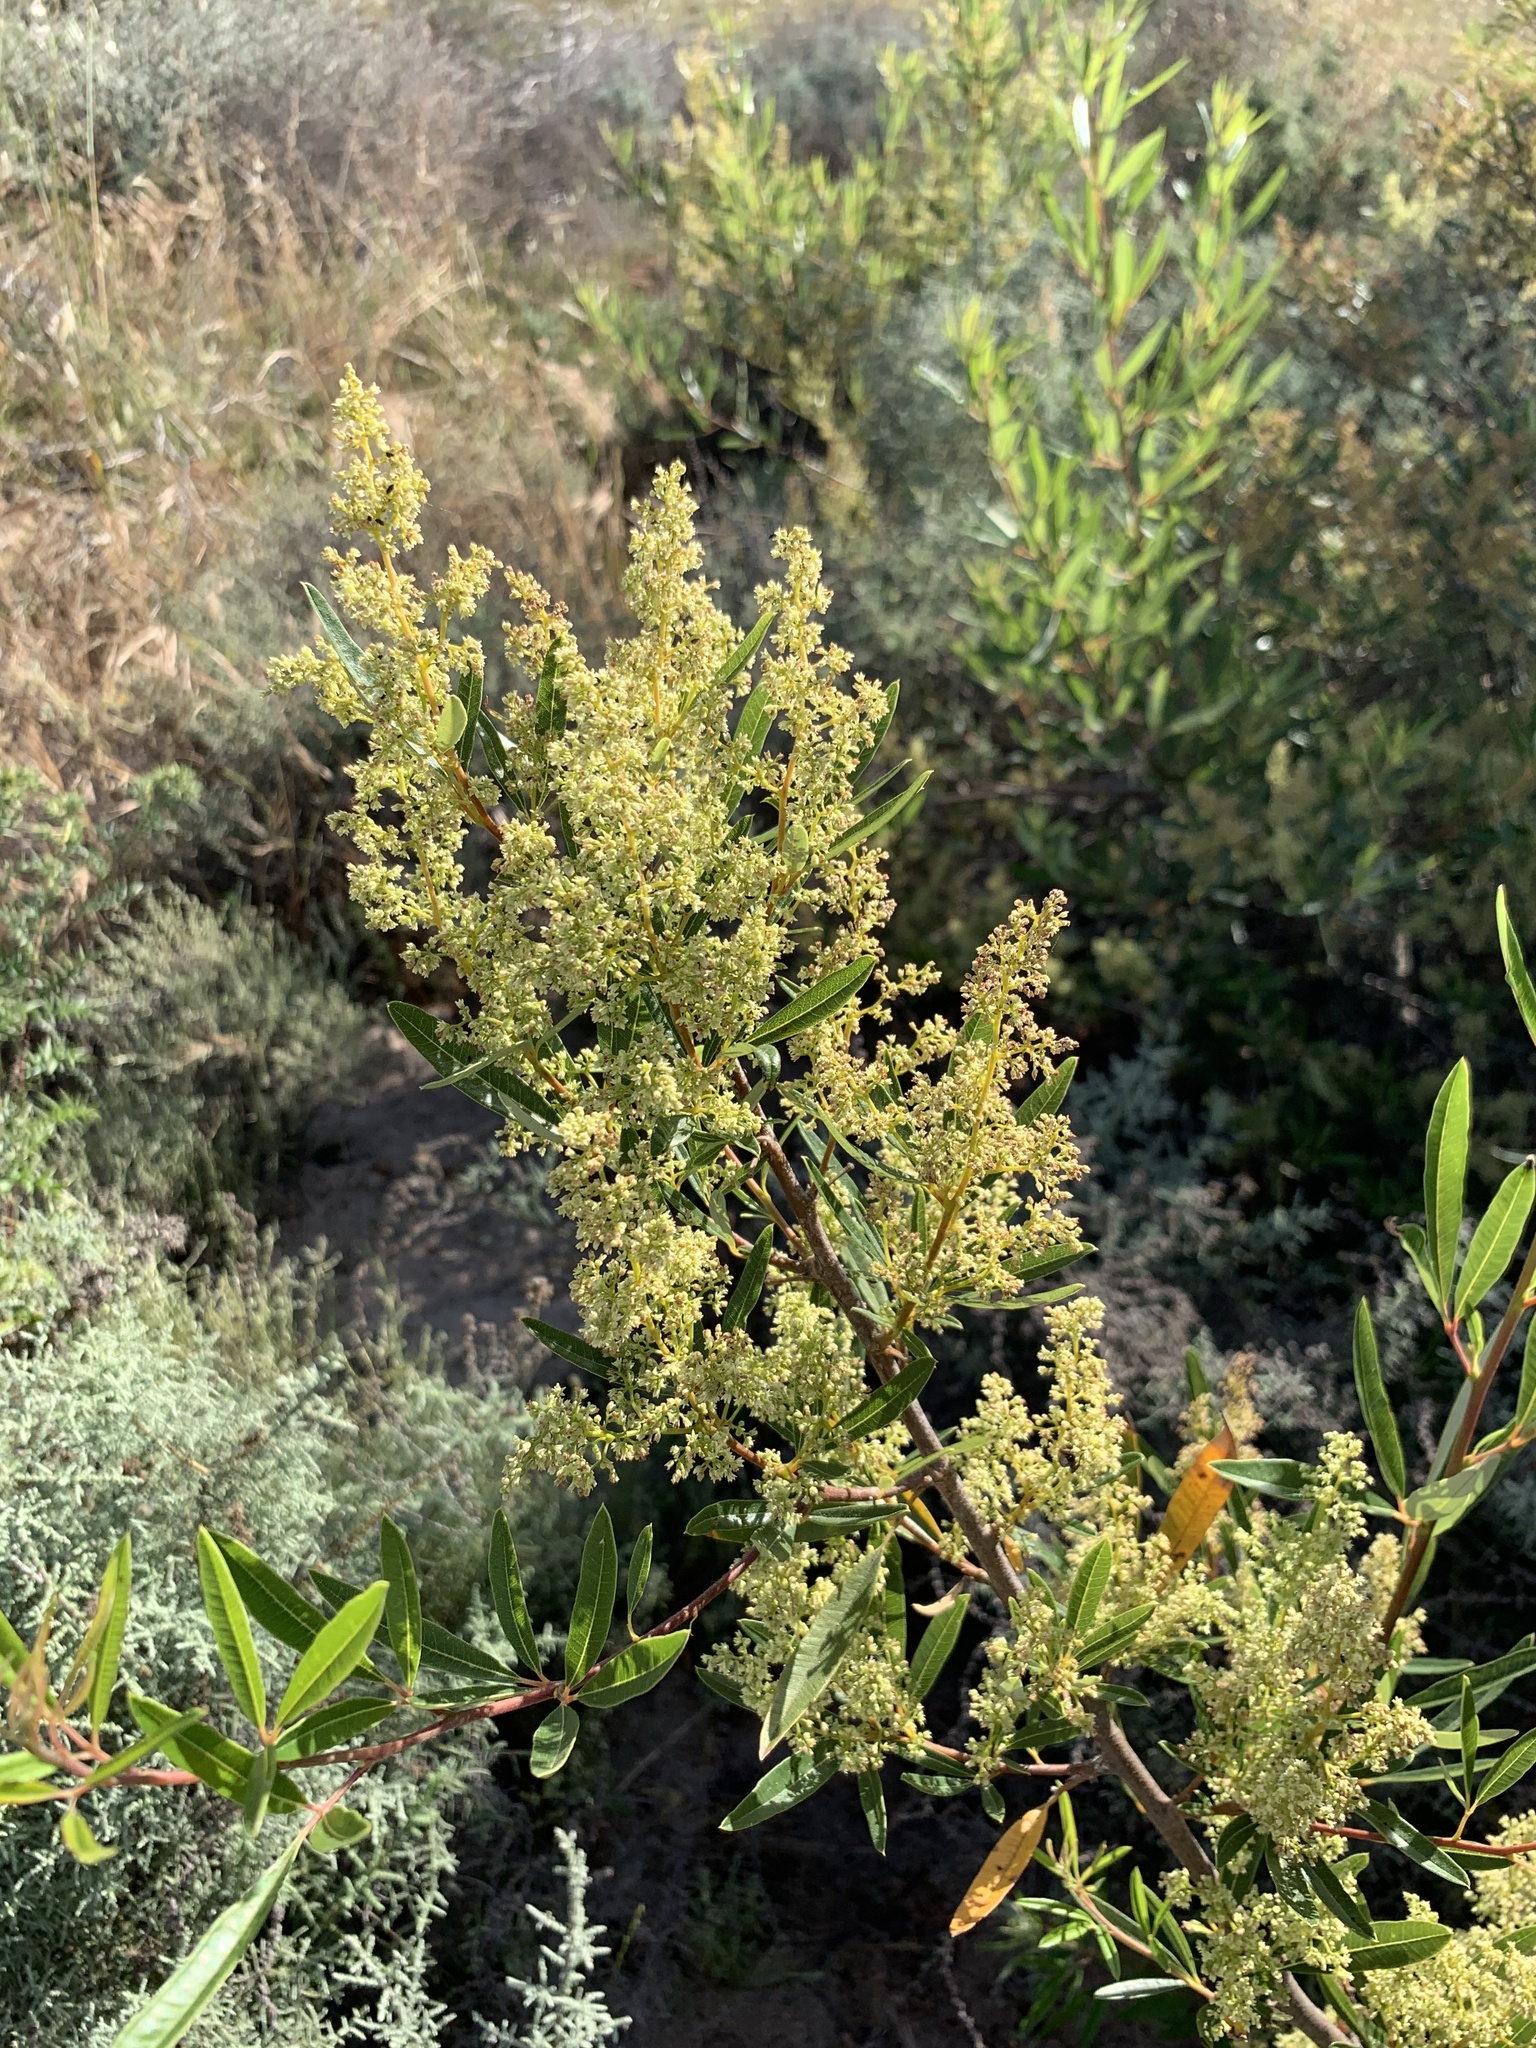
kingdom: Plantae
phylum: Tracheophyta
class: Magnoliopsida
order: Sapindales
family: Anacardiaceae
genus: Searsia
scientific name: Searsia angustifolia
